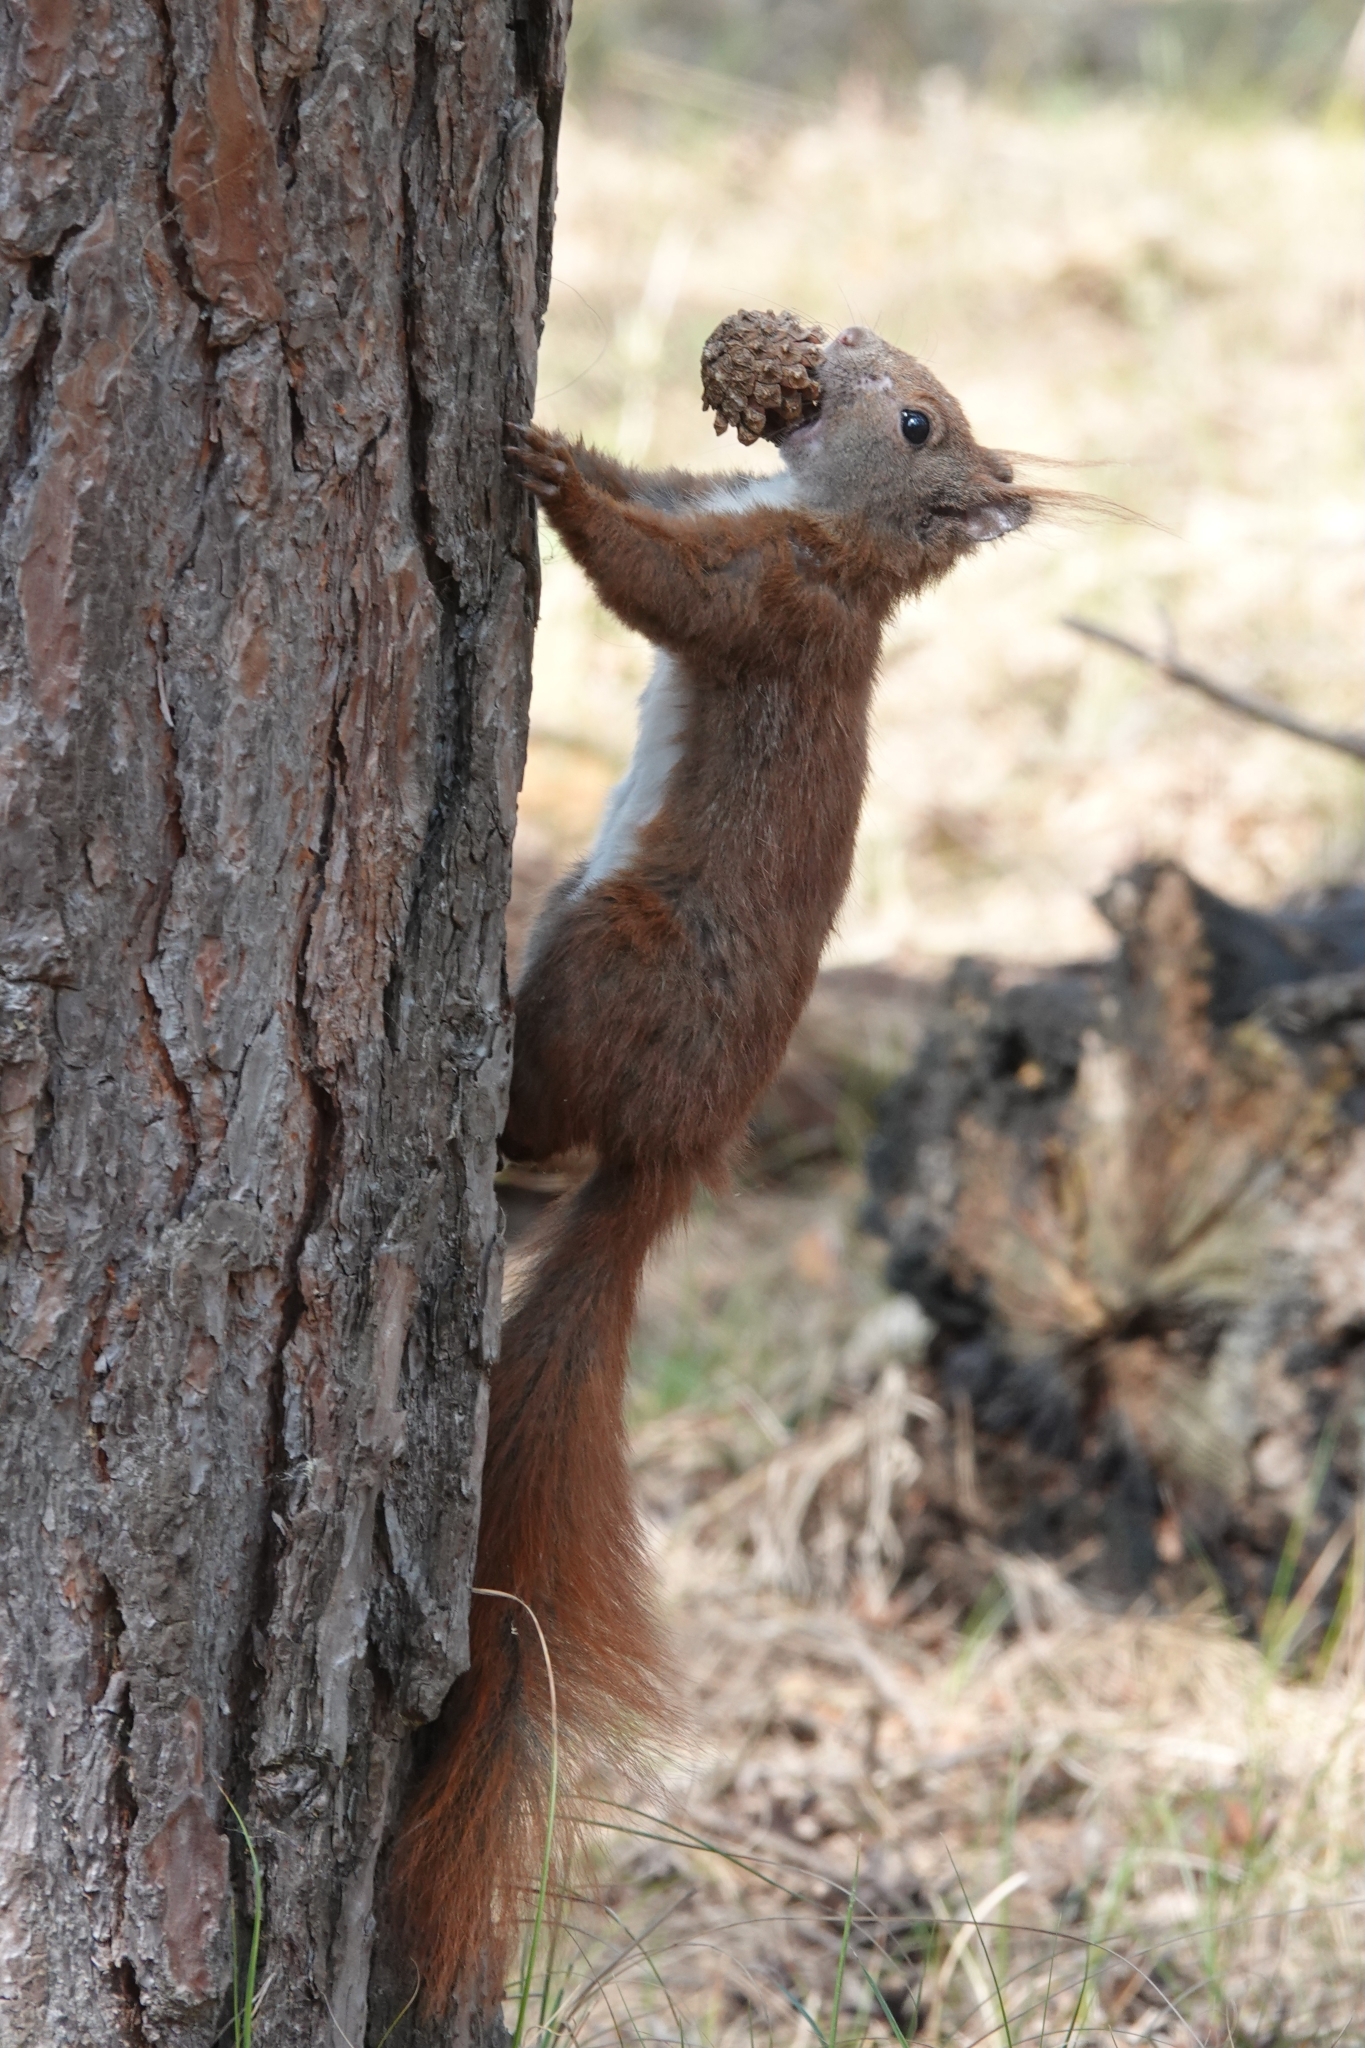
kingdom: Animalia
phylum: Chordata
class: Mammalia
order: Rodentia
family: Sciuridae
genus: Sciurus
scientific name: Sciurus vulgaris
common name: Eurasian red squirrel
